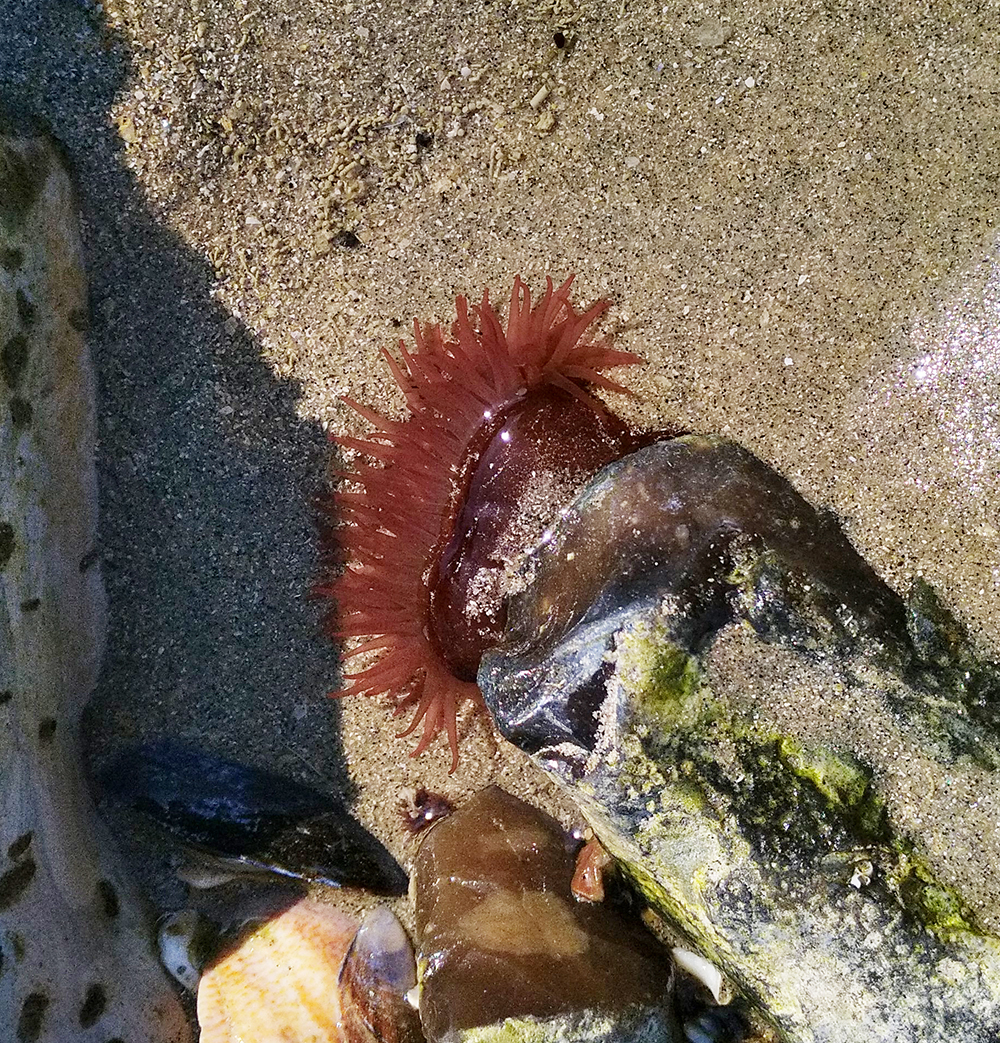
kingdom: Animalia
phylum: Cnidaria
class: Anthozoa
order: Actiniaria
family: Actiniidae
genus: Actinia
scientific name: Actinia equina
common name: Beadlet anemone
